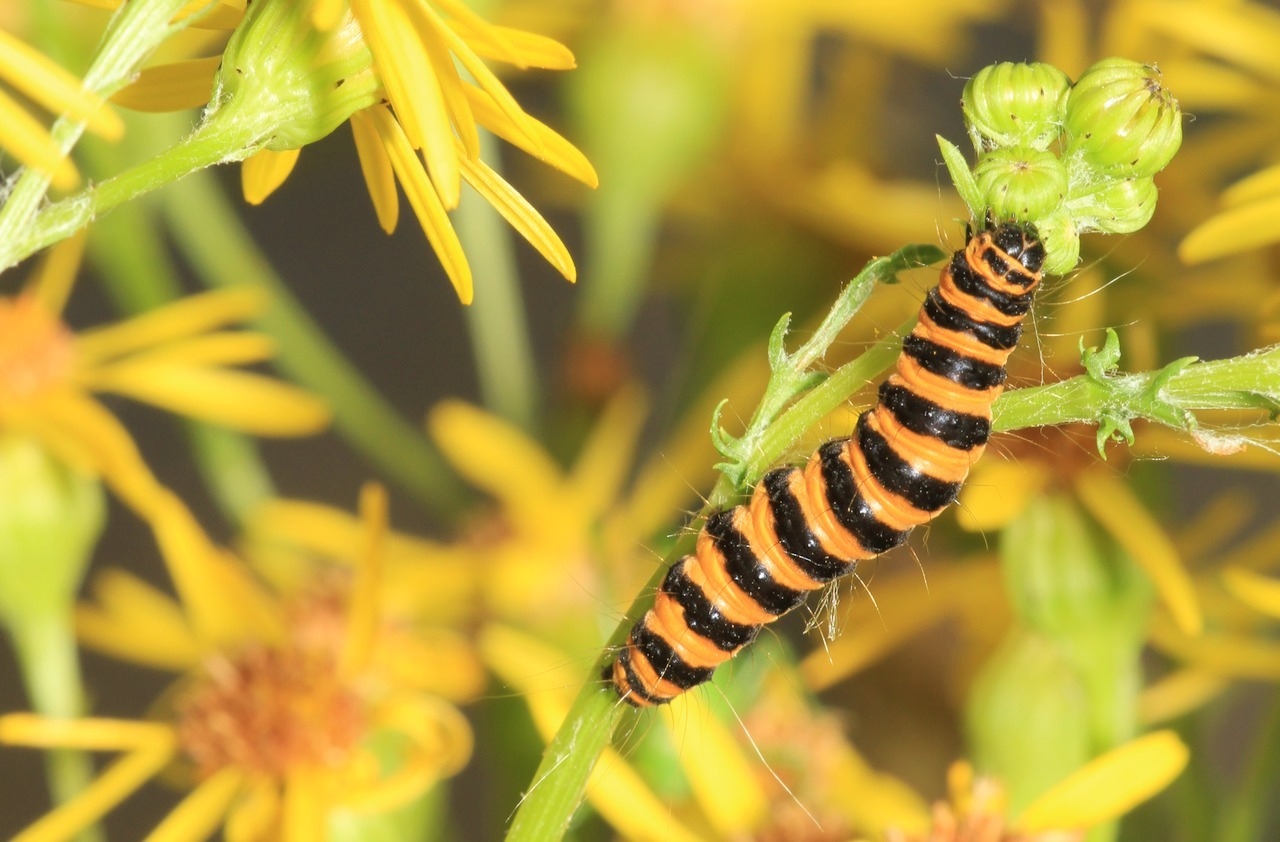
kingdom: Animalia
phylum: Arthropoda
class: Insecta
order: Lepidoptera
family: Erebidae
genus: Tyria
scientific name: Tyria jacobaeae
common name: Cinnabar
